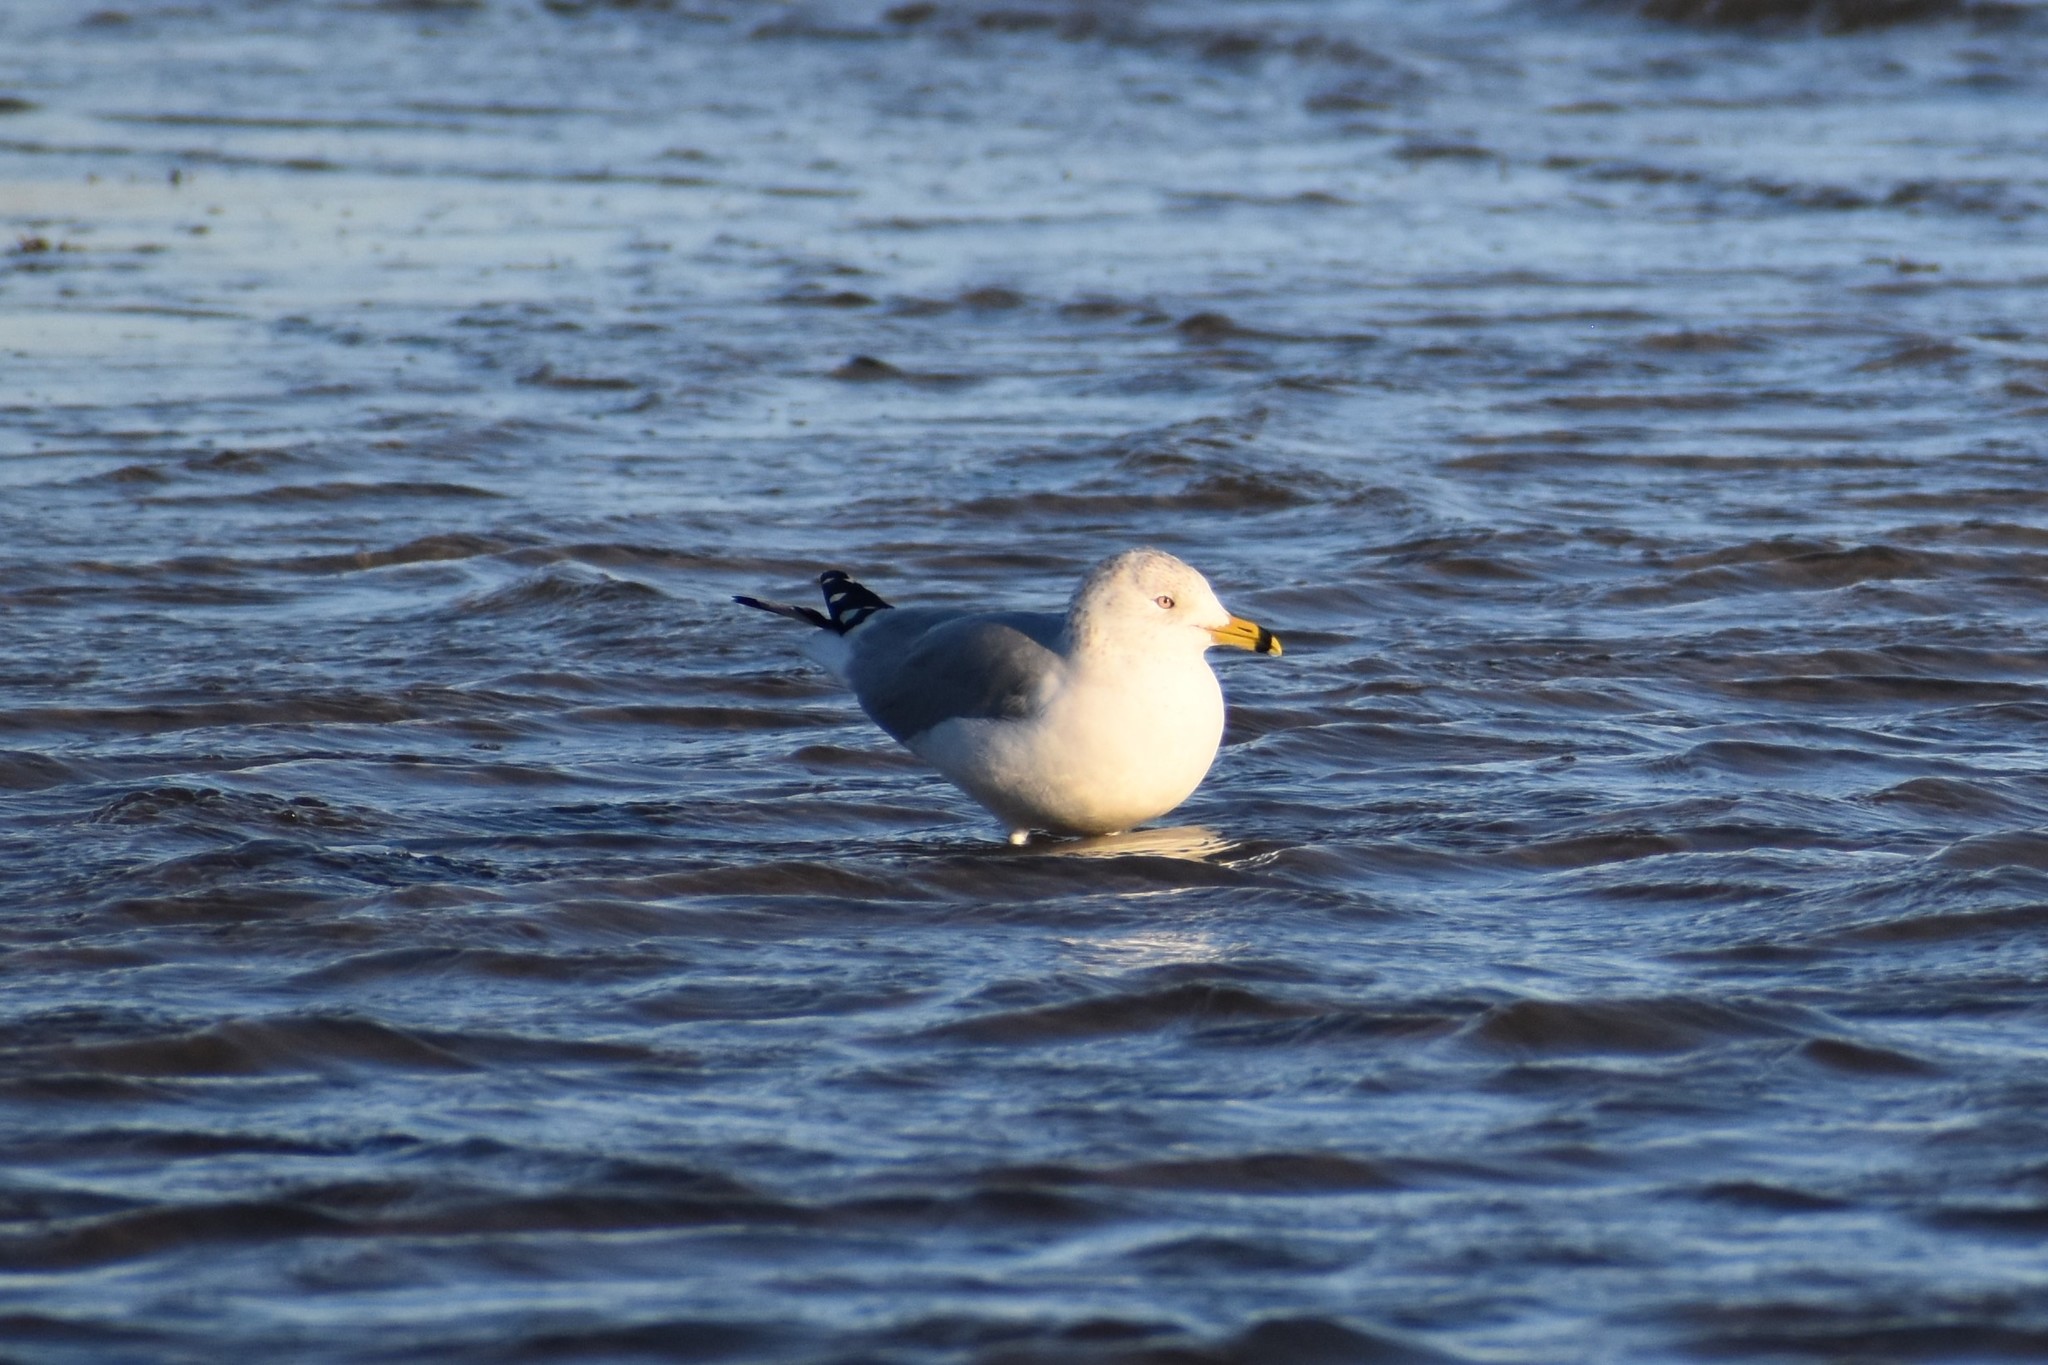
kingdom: Animalia
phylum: Chordata
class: Aves
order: Charadriiformes
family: Laridae
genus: Larus
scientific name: Larus delawarensis
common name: Ring-billed gull
